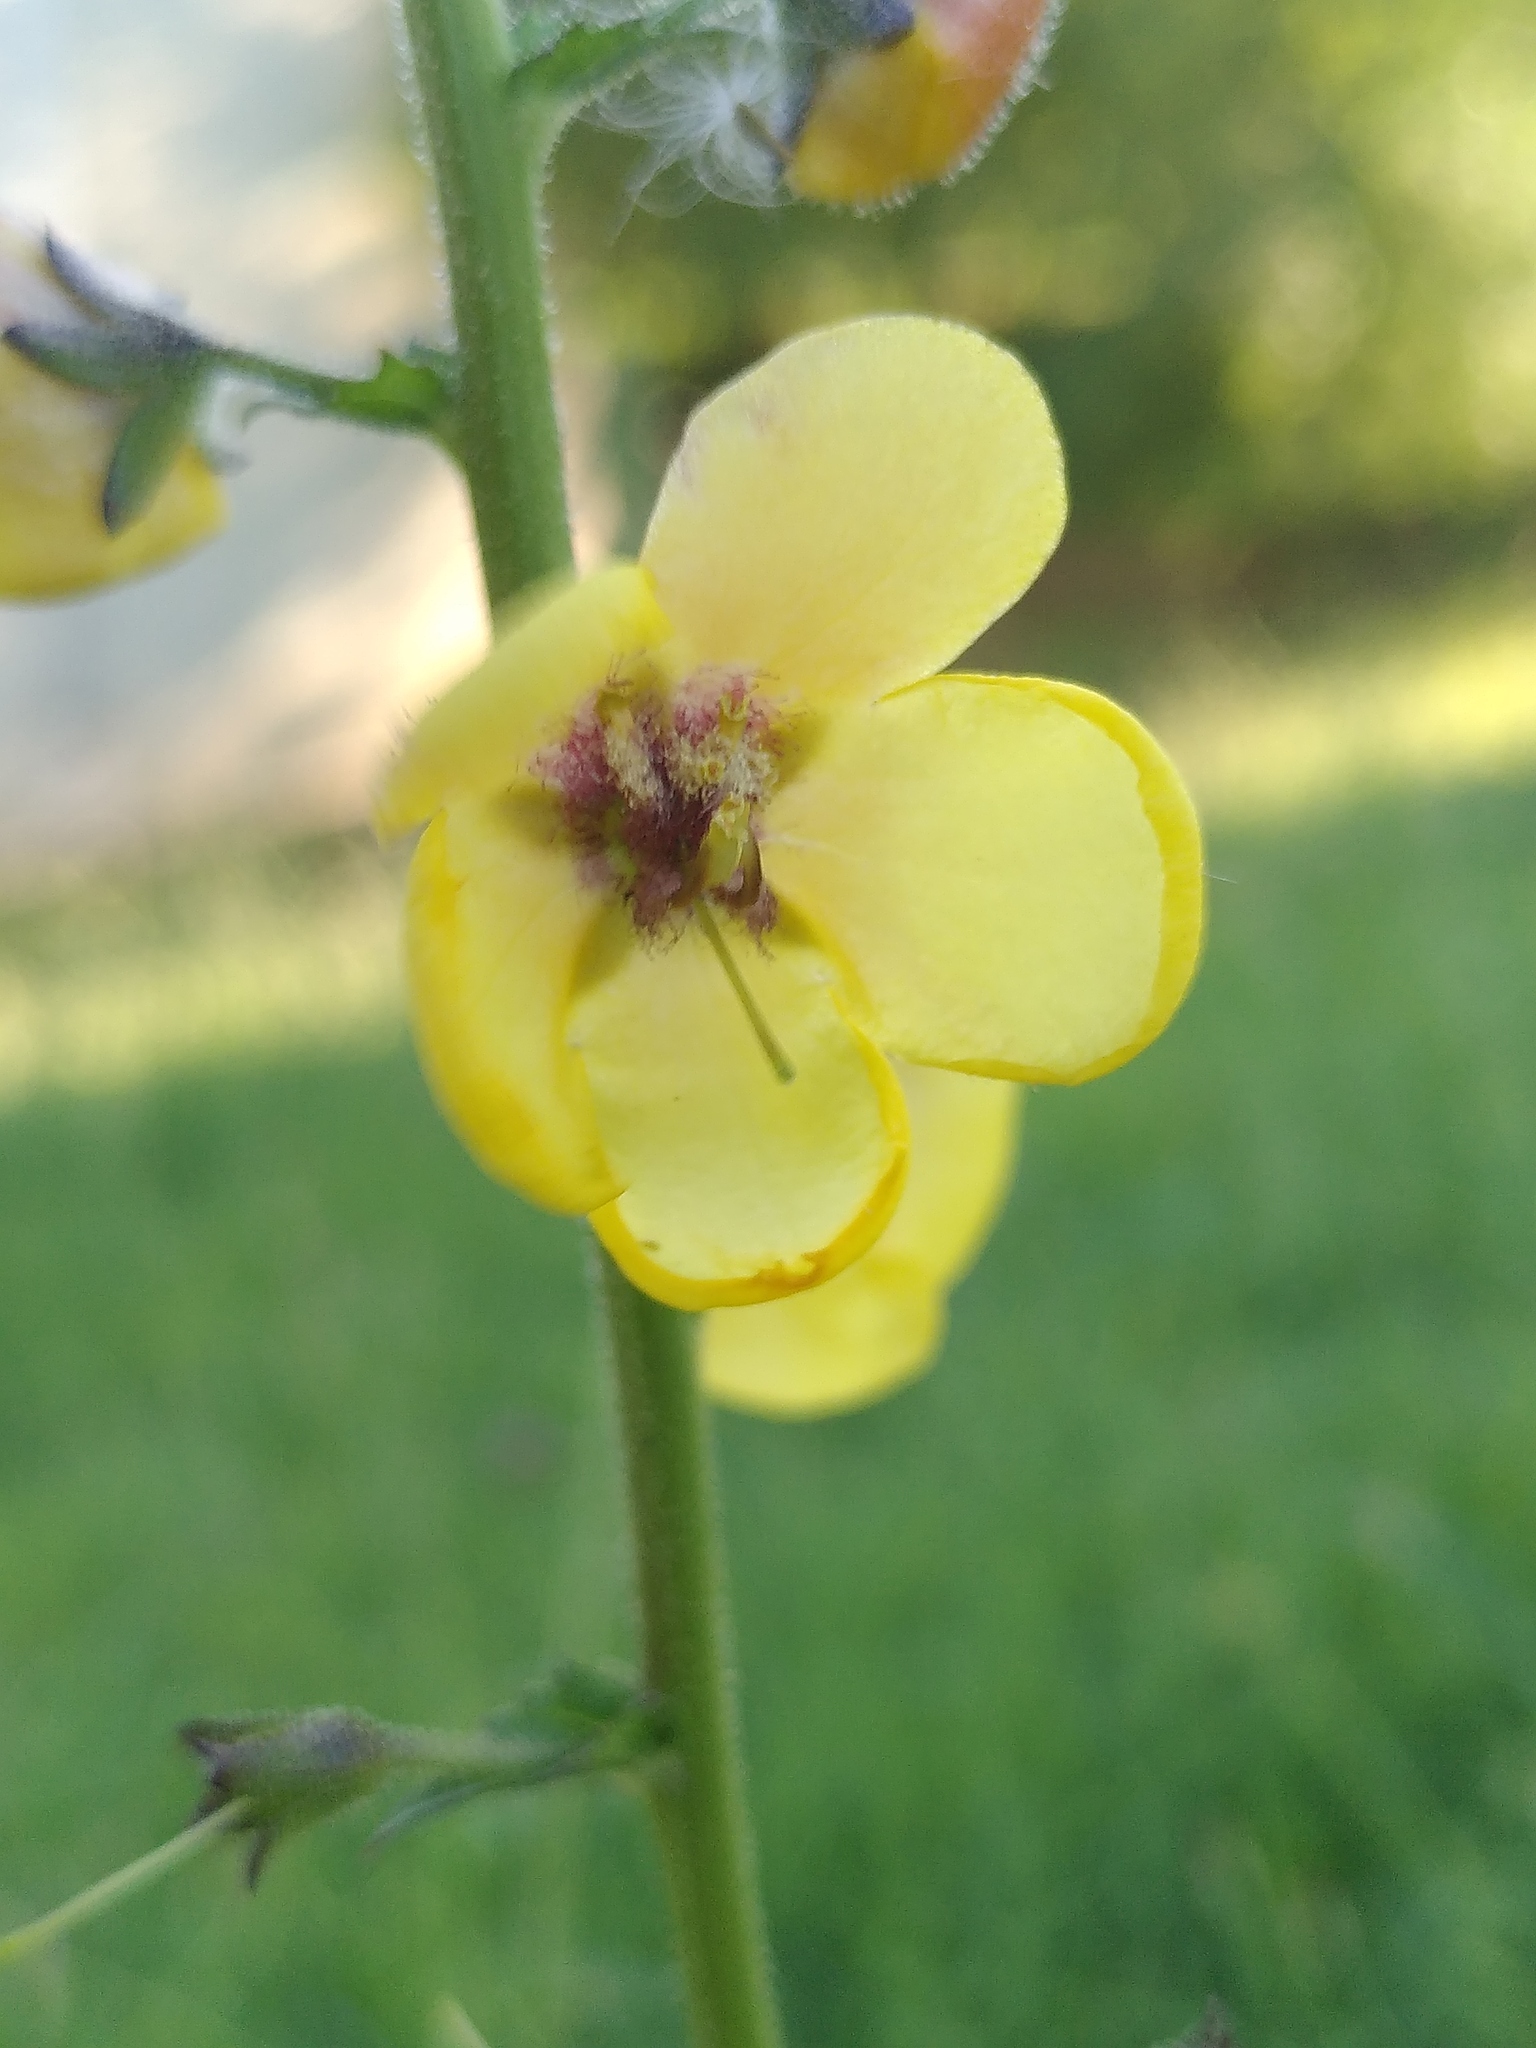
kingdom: Plantae
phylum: Tracheophyta
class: Magnoliopsida
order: Lamiales
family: Scrophulariaceae
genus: Verbascum
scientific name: Verbascum blattaria
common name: Moth mullein
